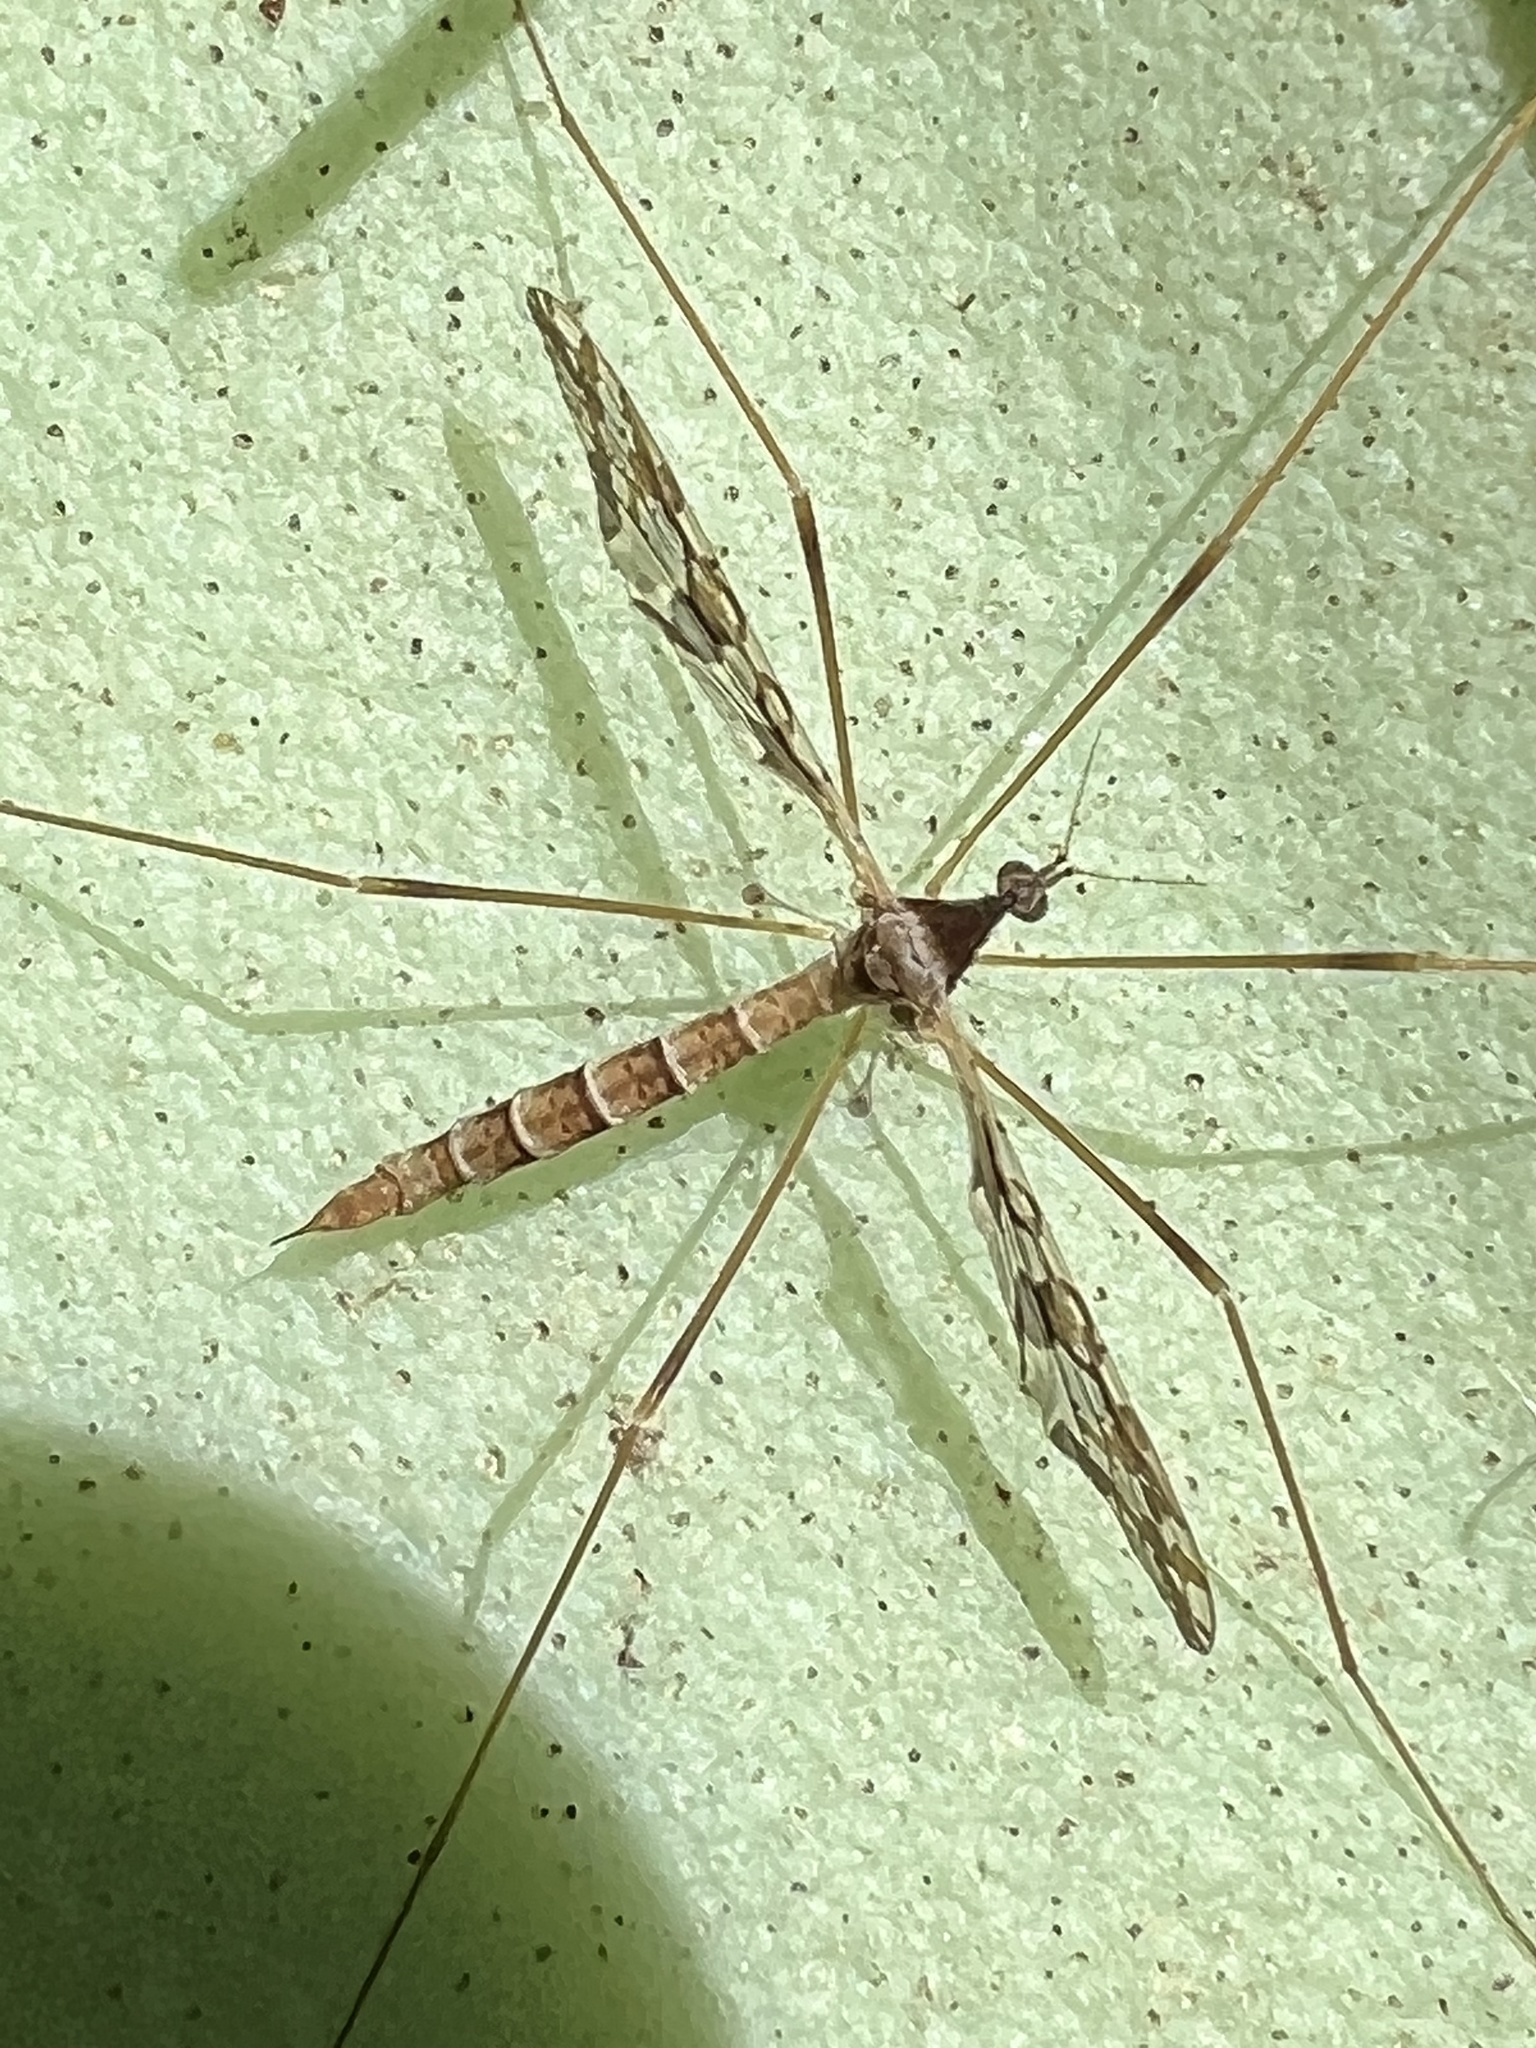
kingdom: Animalia
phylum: Arthropoda
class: Insecta
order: Diptera
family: Limoniidae
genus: Epiphragma
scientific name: Epiphragma solatrix
